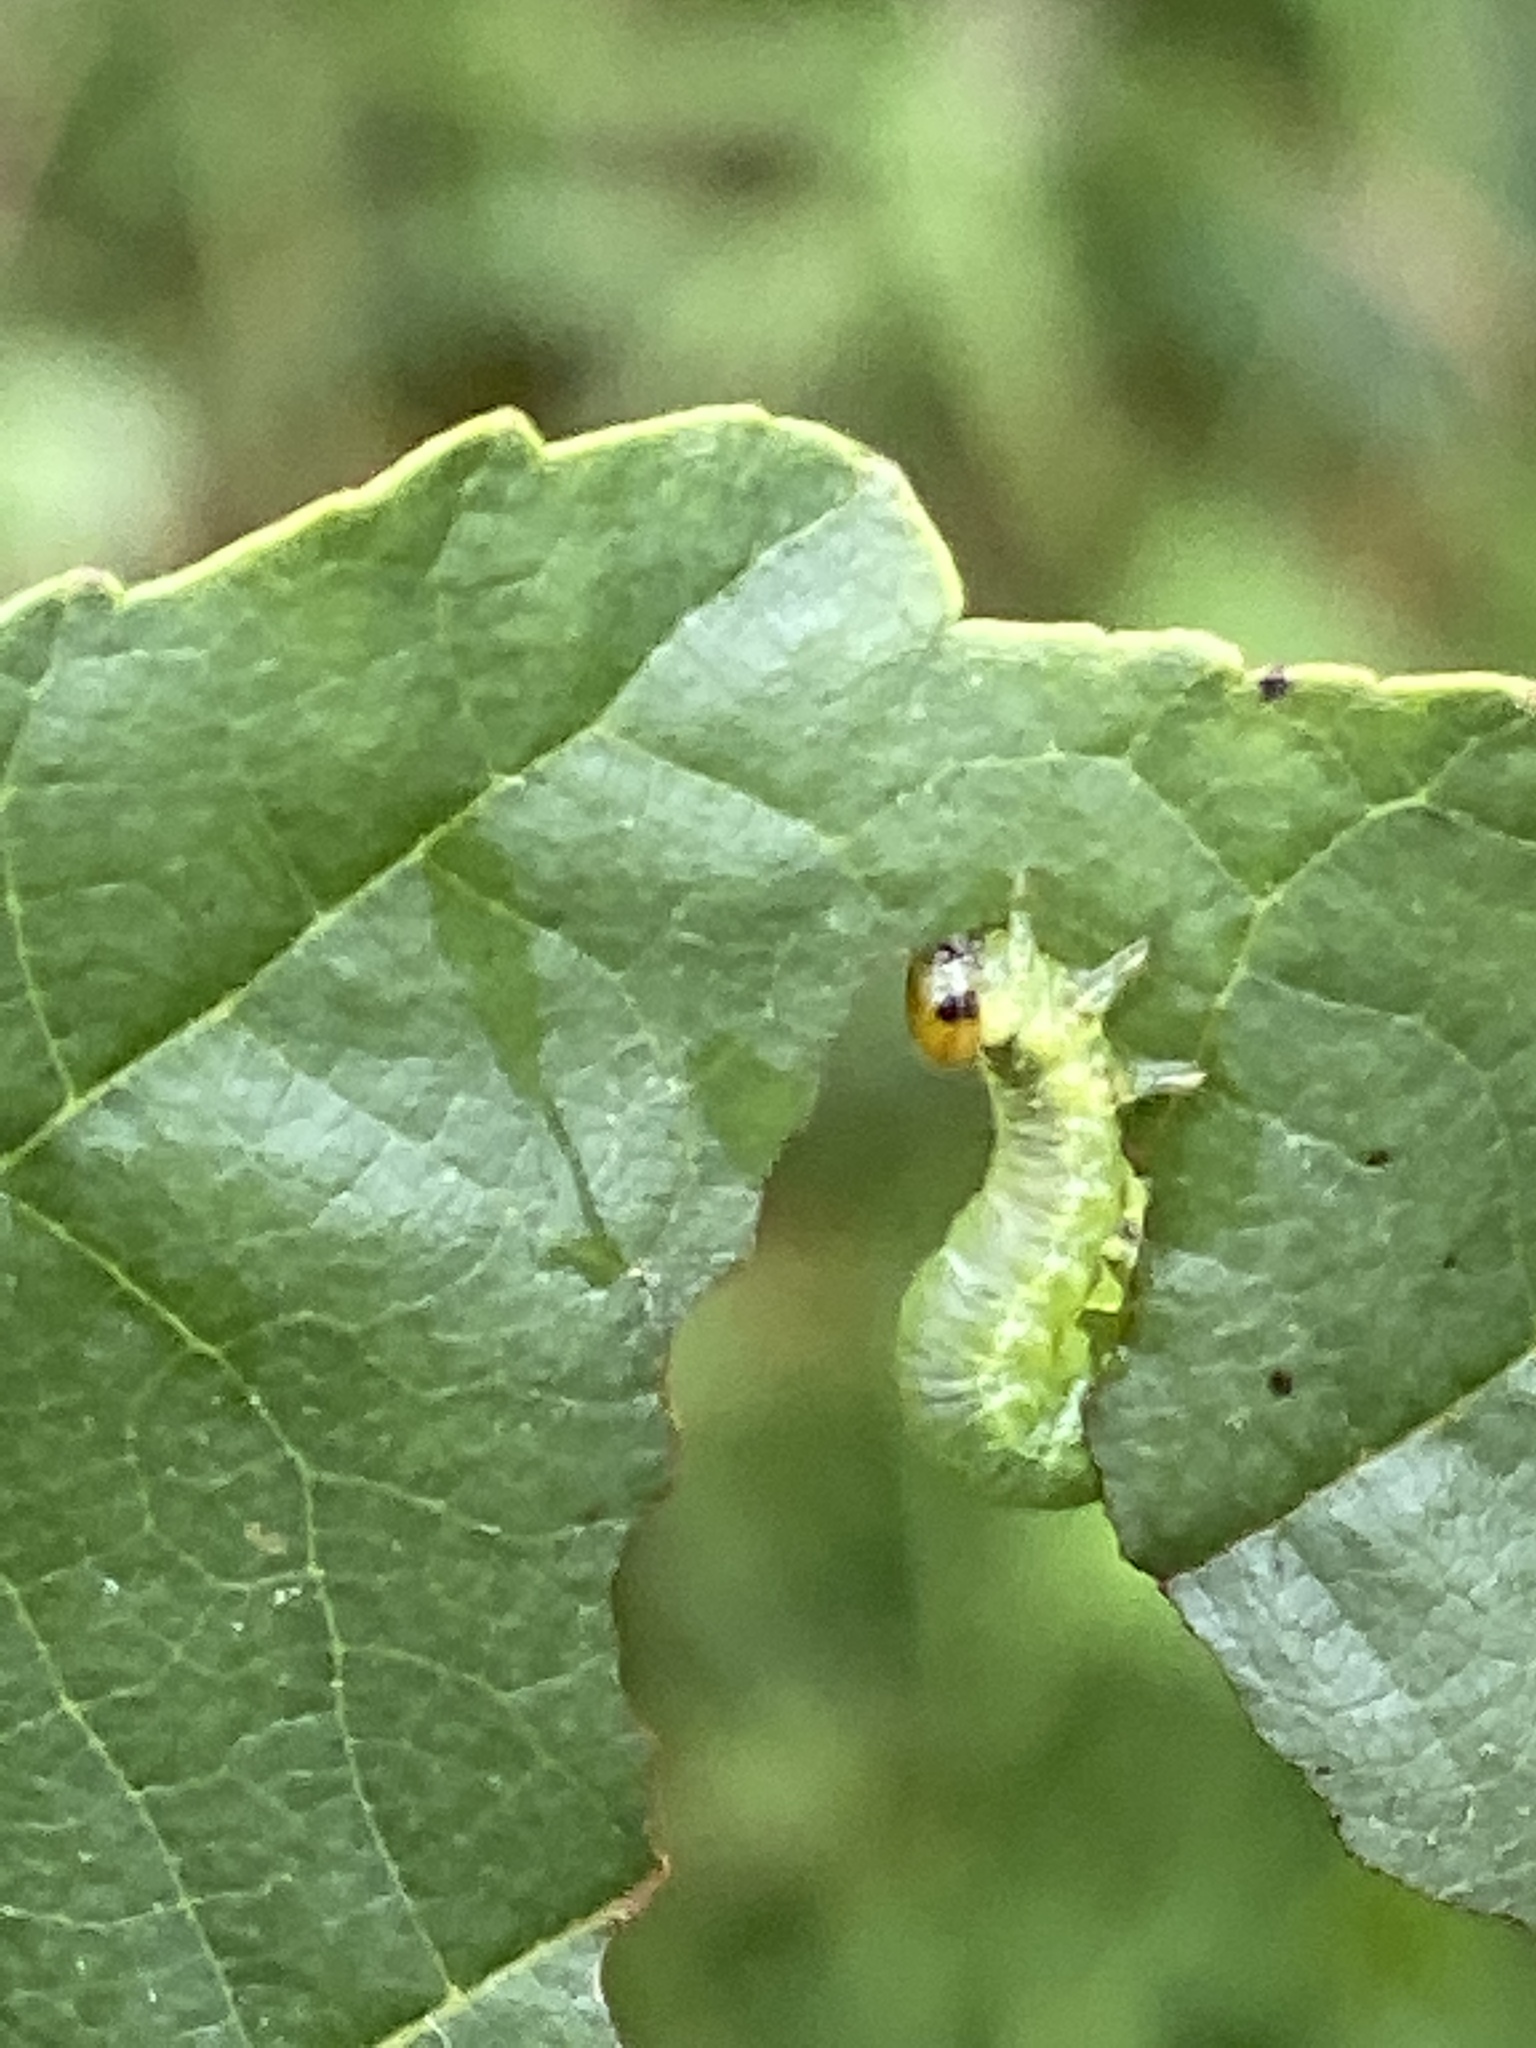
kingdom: Animalia
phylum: Arthropoda
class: Insecta
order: Hymenoptera
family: Tenthredinidae
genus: Hemichroa
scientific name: Hemichroa australis
